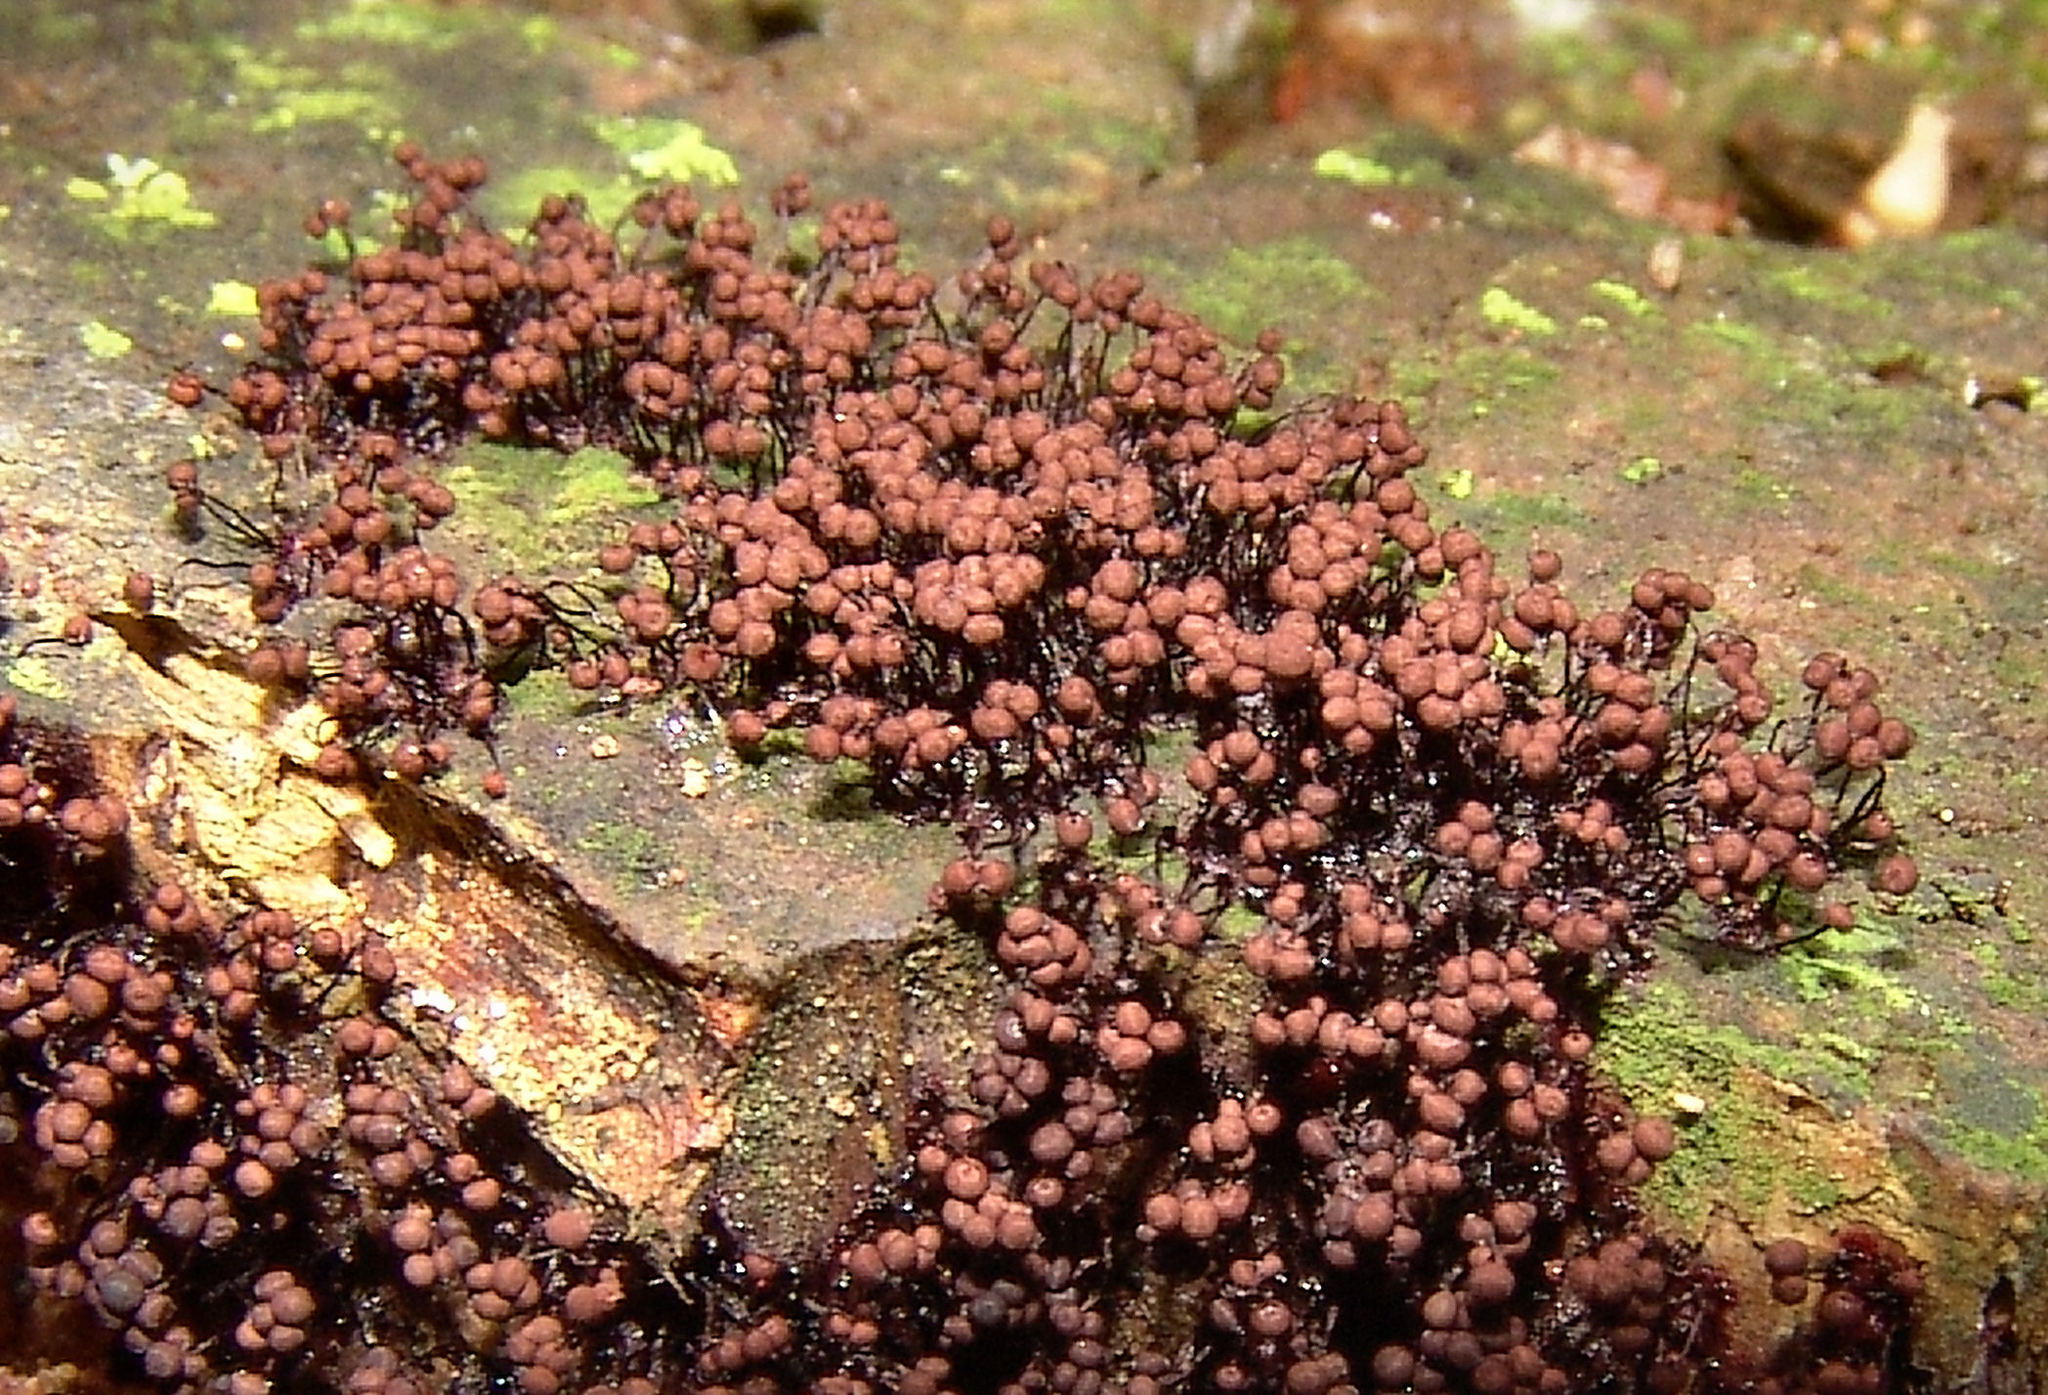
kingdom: Protozoa
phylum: Mycetozoa
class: Myxomycetes
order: Cribrariales
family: Cribrariaceae
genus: Cribraria
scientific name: Cribraria cancellata
